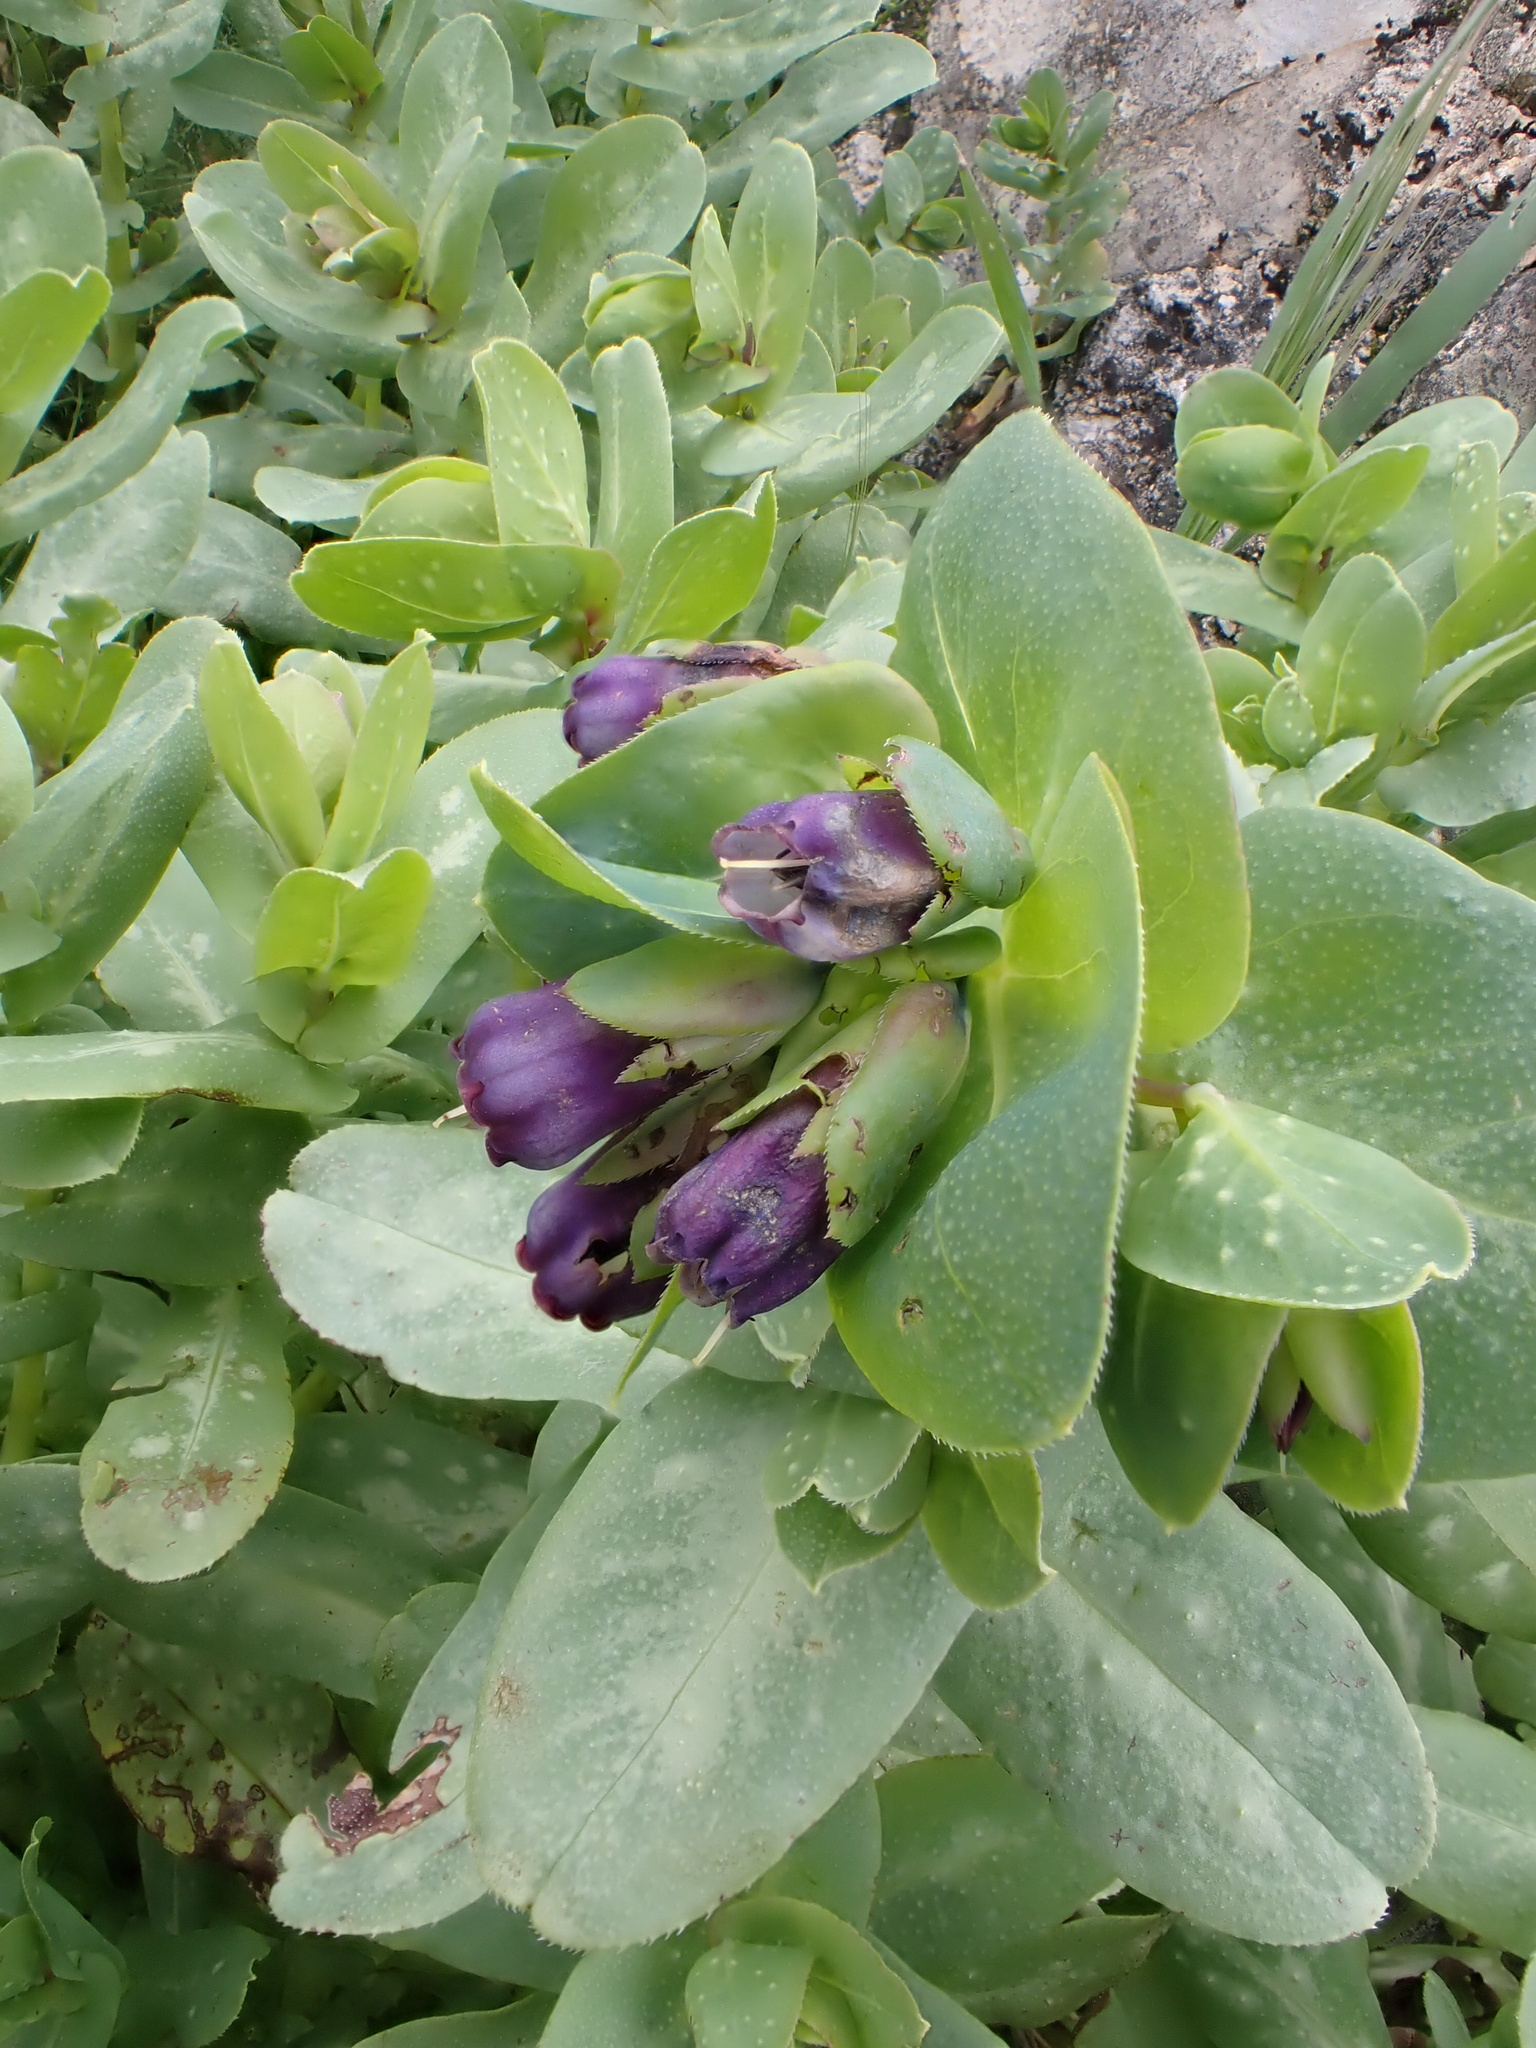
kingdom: Plantae
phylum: Tracheophyta
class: Magnoliopsida
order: Boraginales
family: Boraginaceae
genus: Cerinthe
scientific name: Cerinthe major
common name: Greater honeywort
